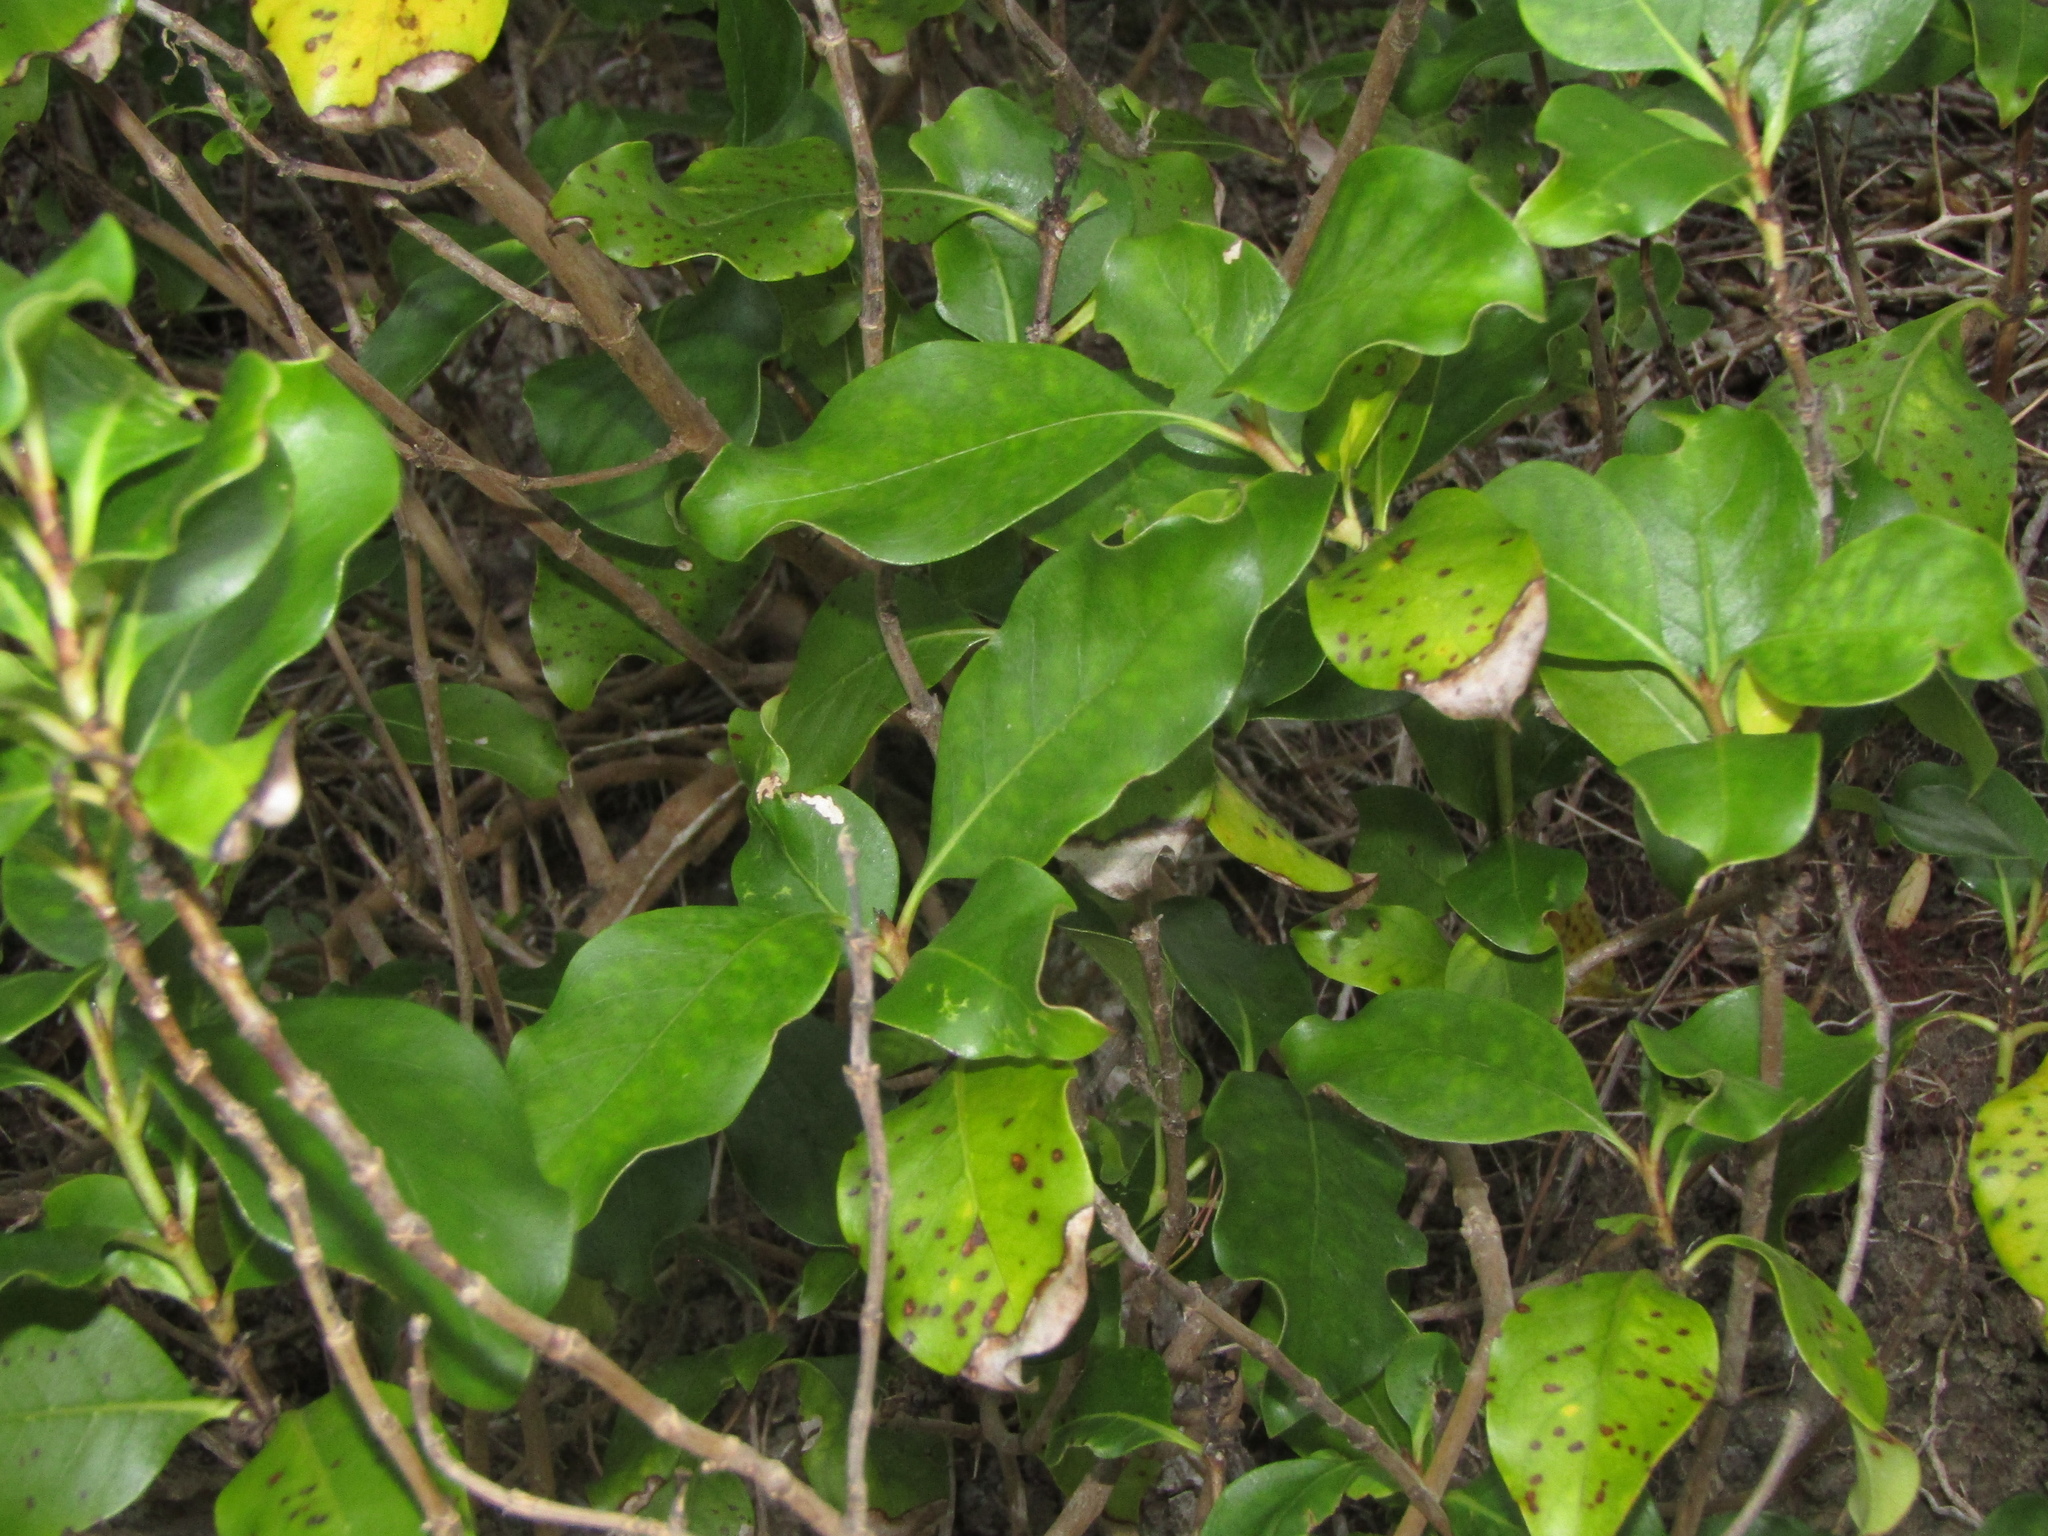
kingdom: Plantae
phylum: Tracheophyta
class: Magnoliopsida
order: Gentianales
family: Rubiaceae
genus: Coprosma
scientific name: Coprosma macrocarpa
